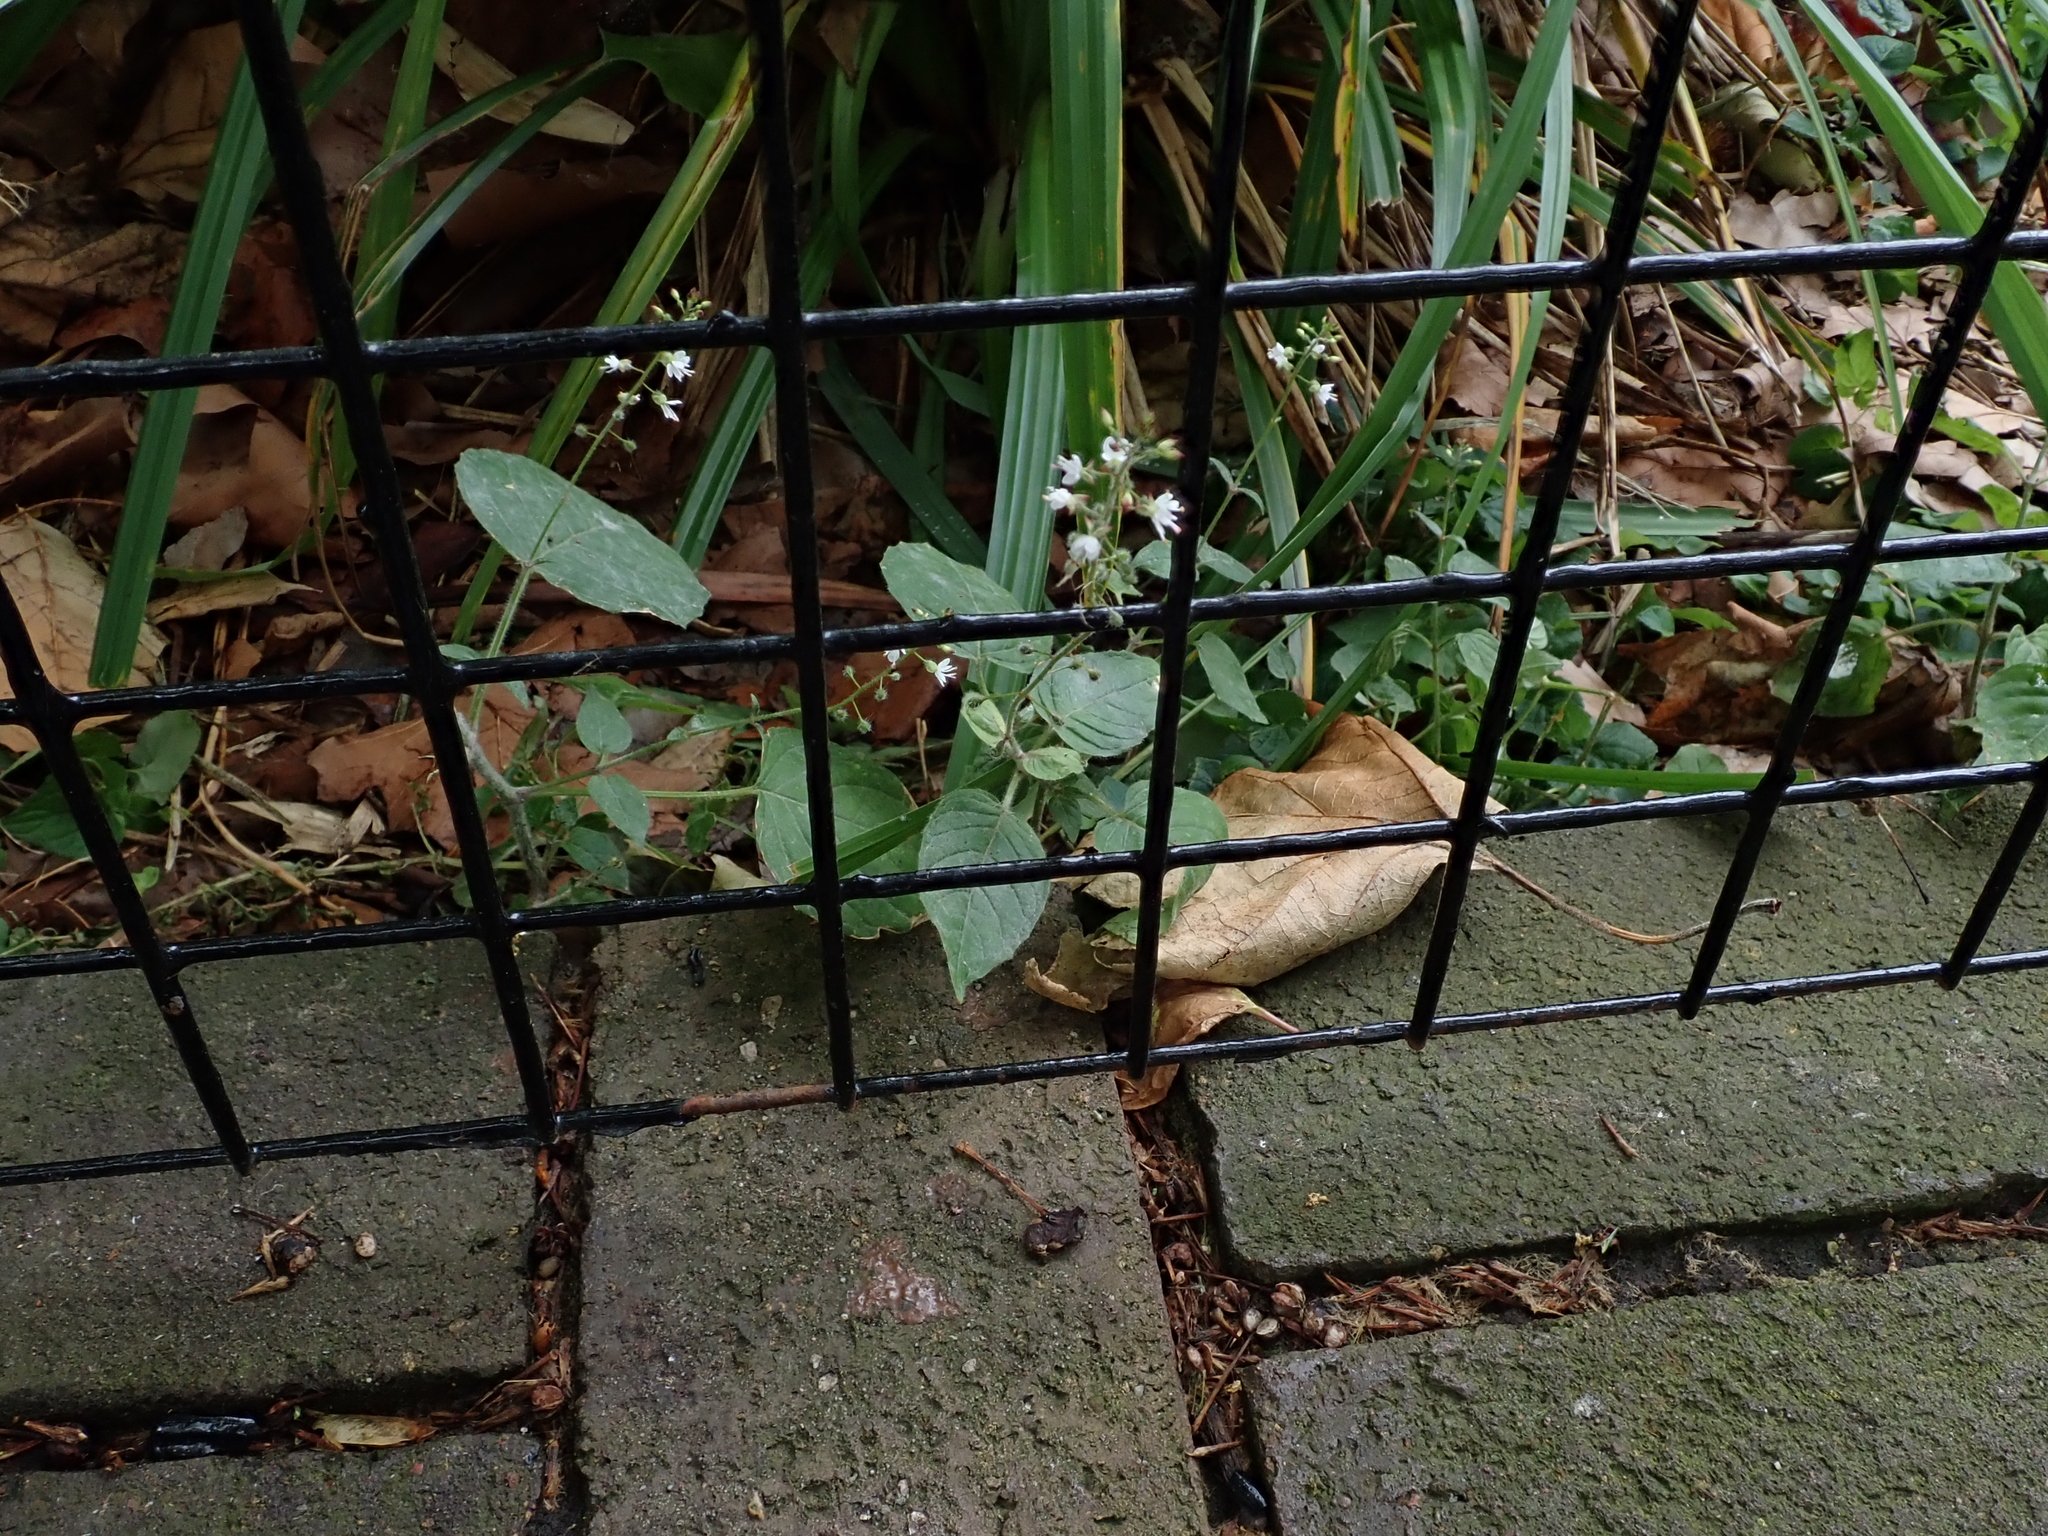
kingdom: Plantae
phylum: Tracheophyta
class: Magnoliopsida
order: Myrtales
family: Onagraceae
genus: Circaea
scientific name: Circaea lutetiana
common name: Enchanter's-nightshade
